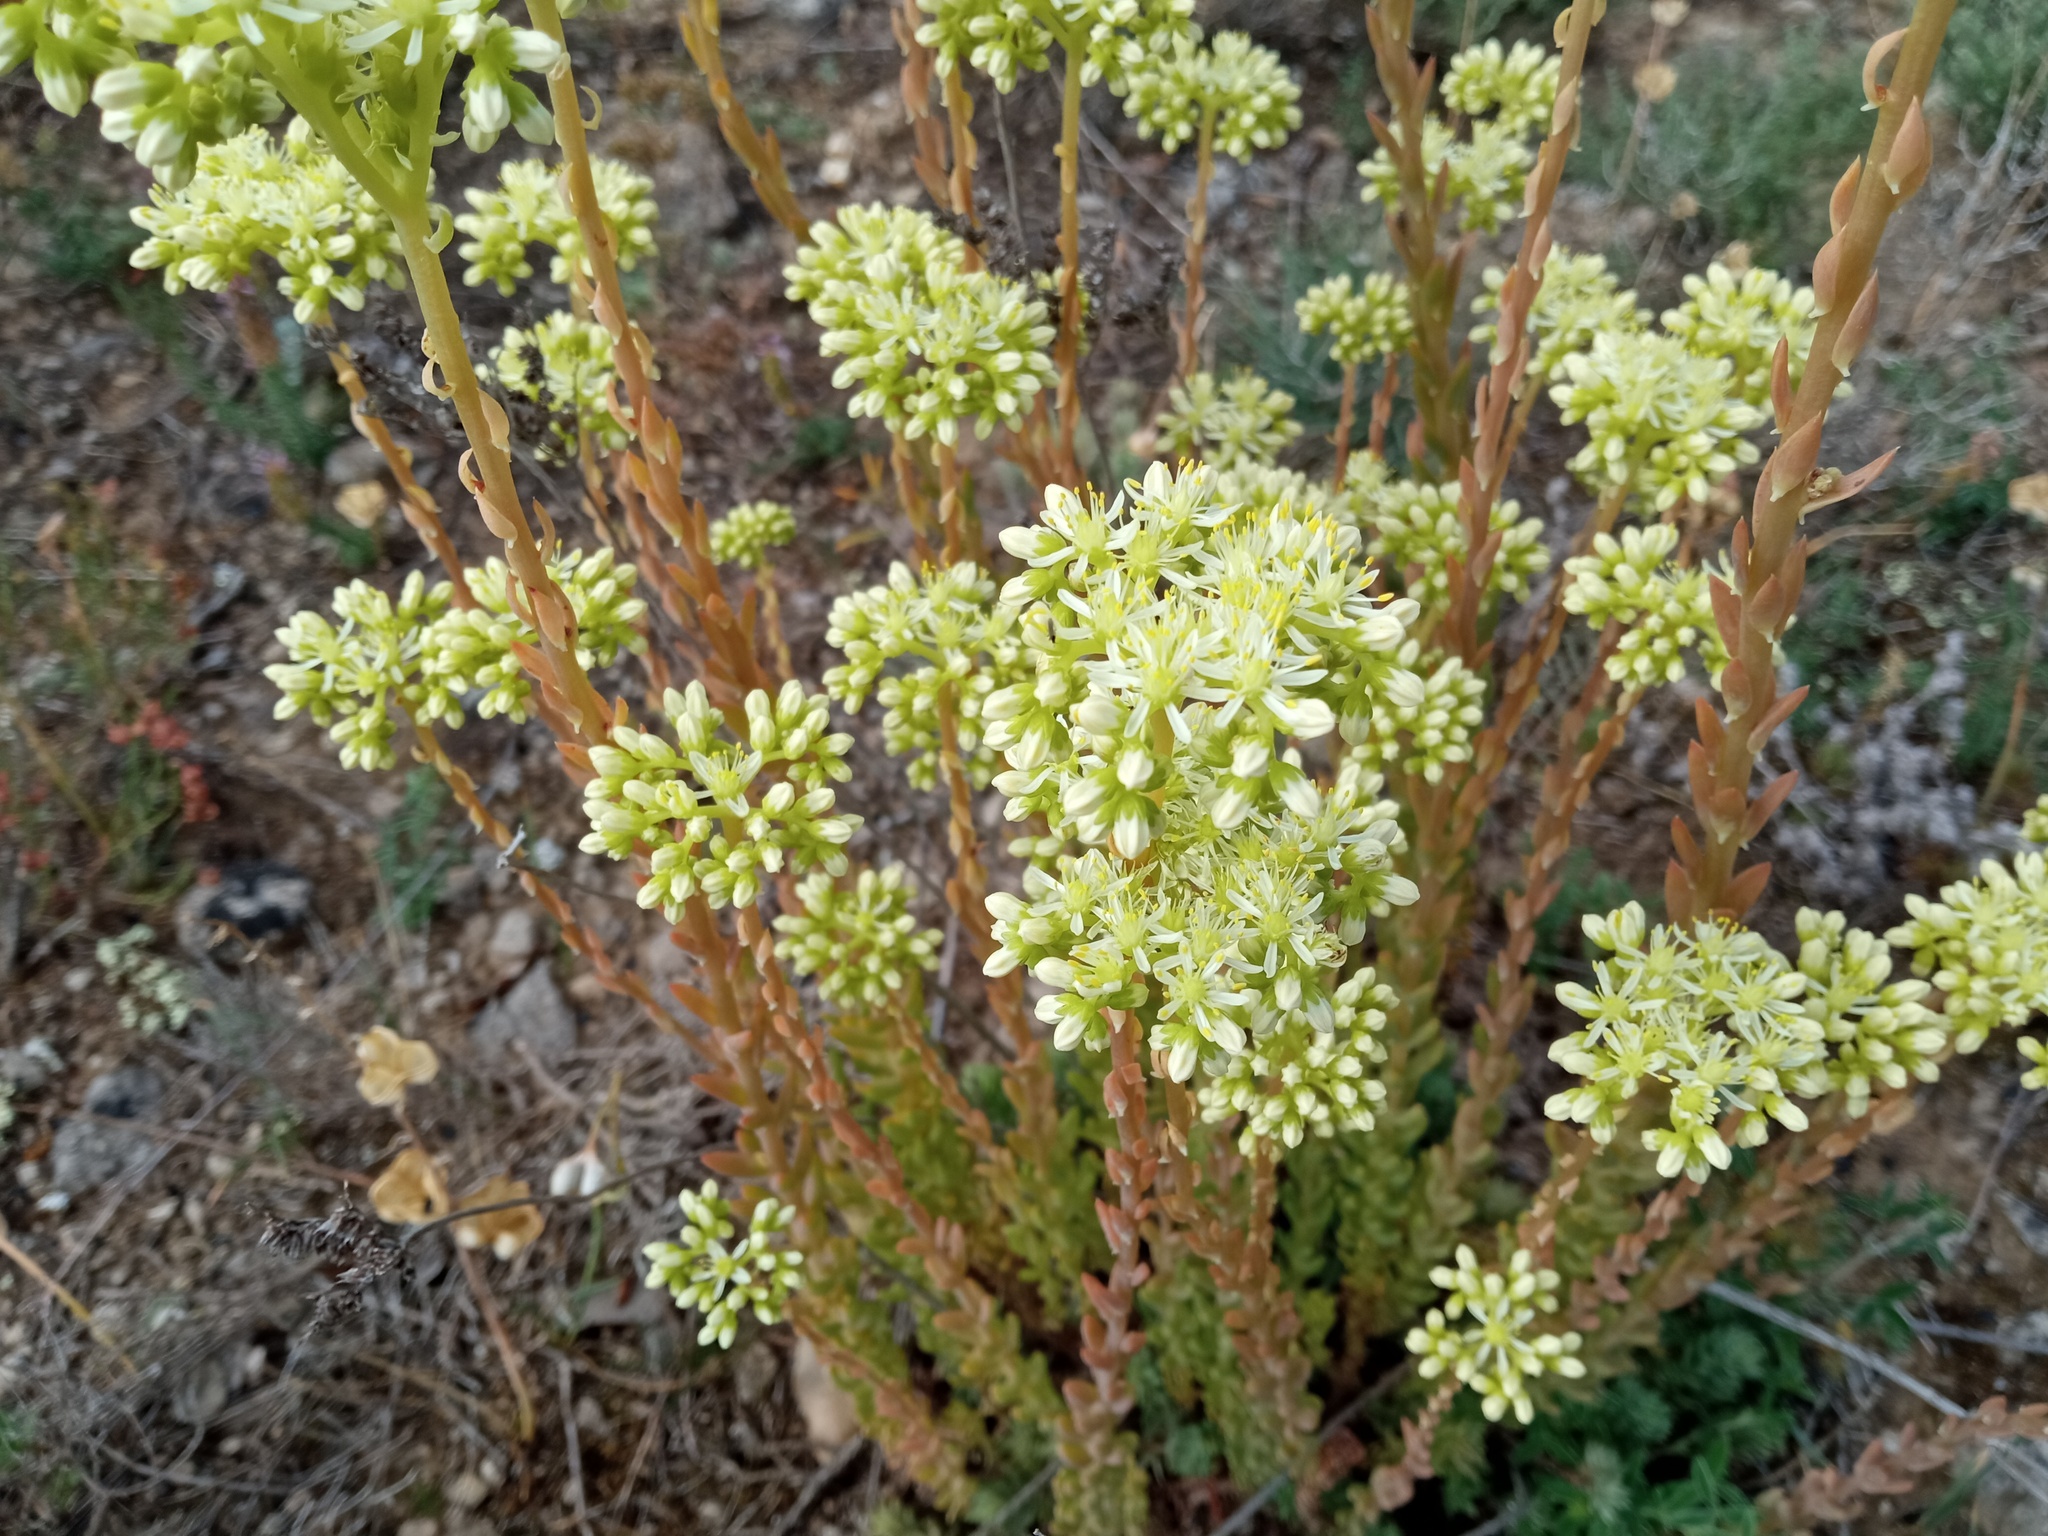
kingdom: Plantae
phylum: Tracheophyta
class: Magnoliopsida
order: Saxifragales
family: Crassulaceae
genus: Petrosedum
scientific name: Petrosedum sediforme
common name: Pale stonecrop
